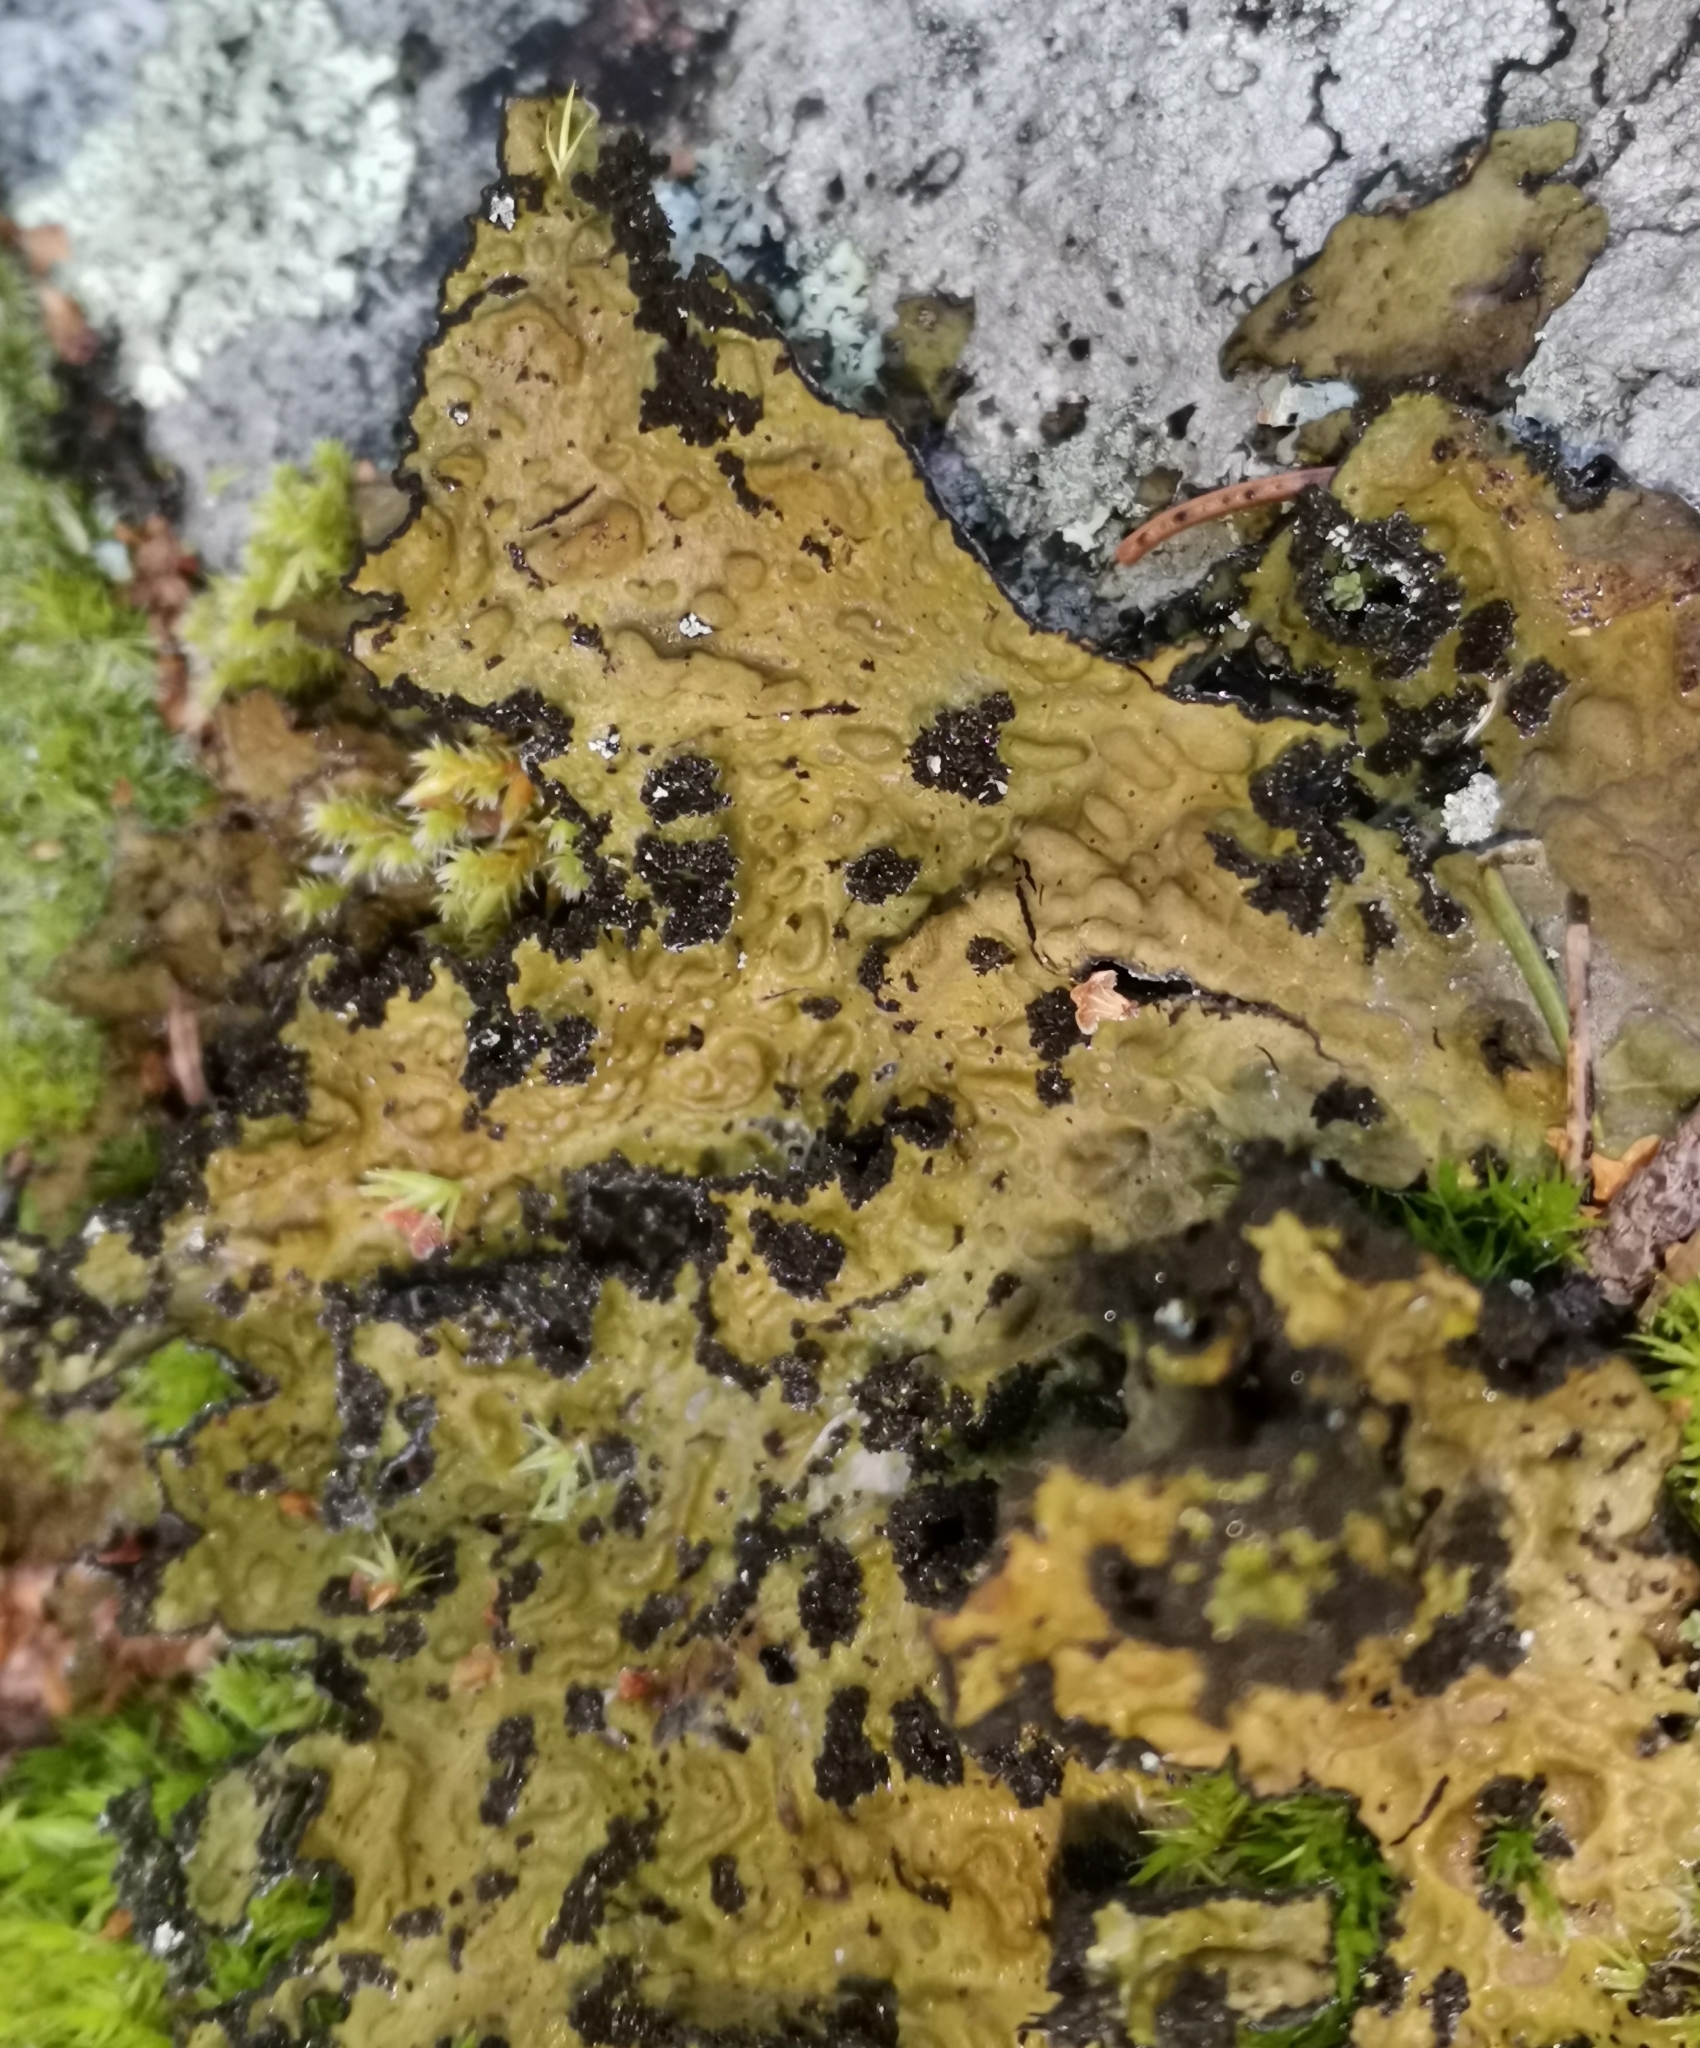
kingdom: Fungi
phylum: Ascomycota
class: Lecanoromycetes
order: Umbilicariales
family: Umbilicariaceae
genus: Lasallia
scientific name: Lasallia pustulata
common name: Blistered toadskin lichen
